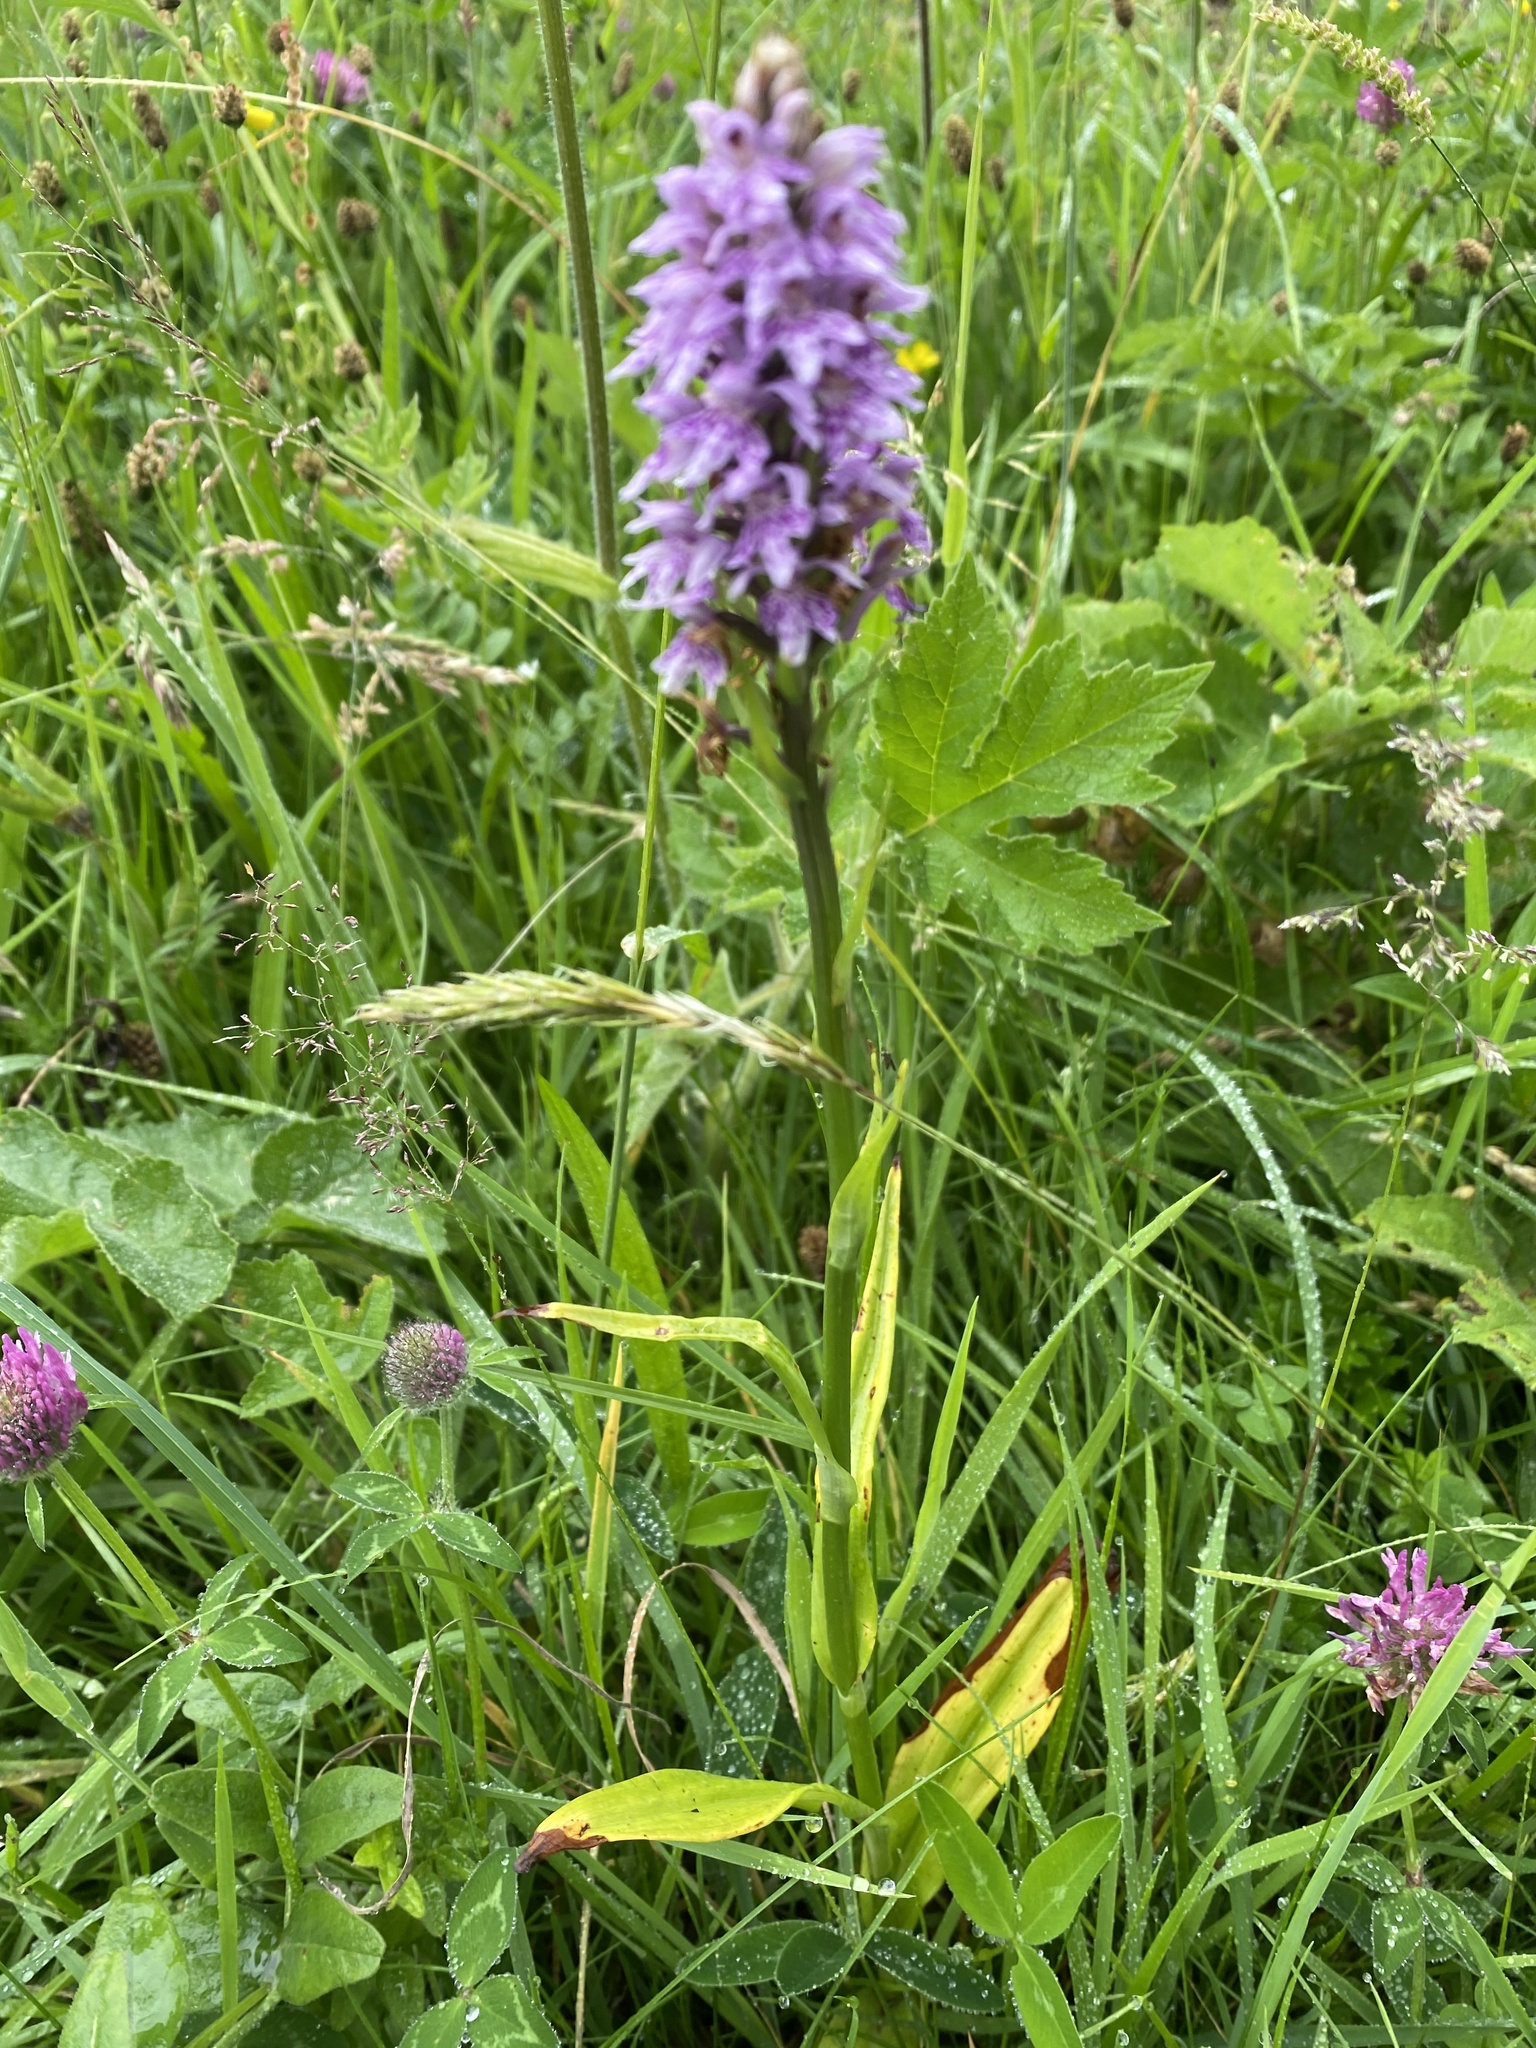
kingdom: Plantae
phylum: Tracheophyta
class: Liliopsida
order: Asparagales
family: Orchidaceae
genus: Dactylorhiza
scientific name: Dactylorhiza maculata
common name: Heath spotted-orchid
